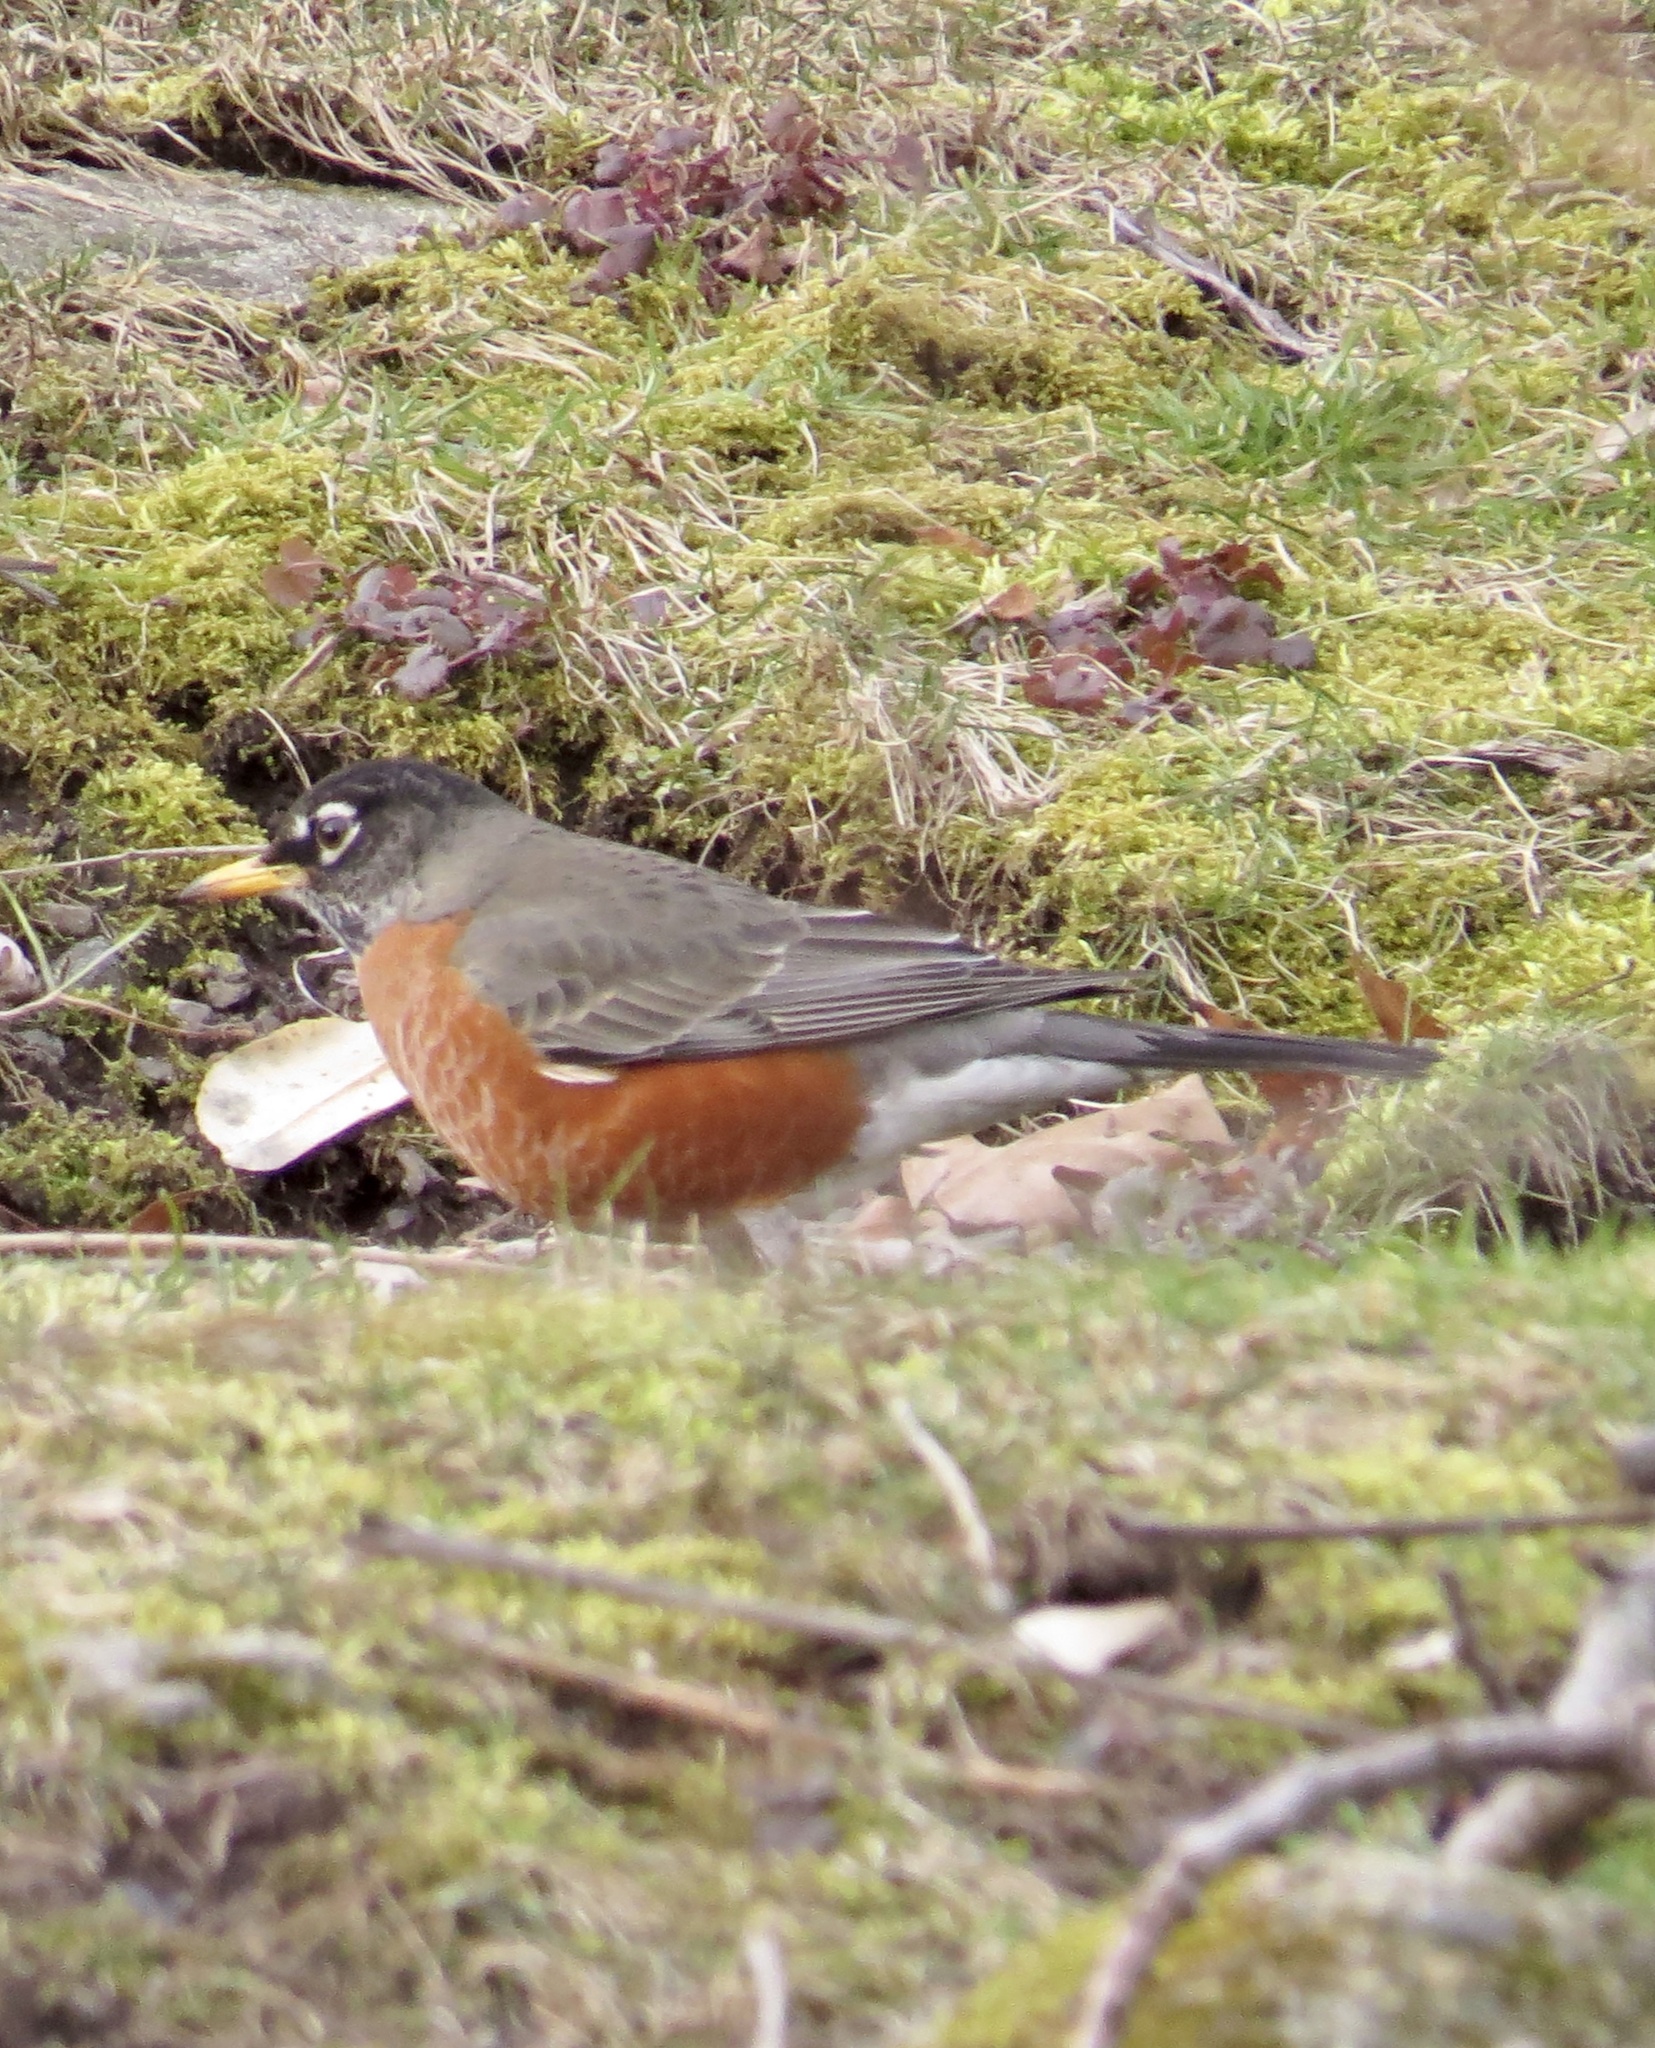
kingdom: Animalia
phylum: Chordata
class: Aves
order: Passeriformes
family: Turdidae
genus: Turdus
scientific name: Turdus migratorius
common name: American robin
